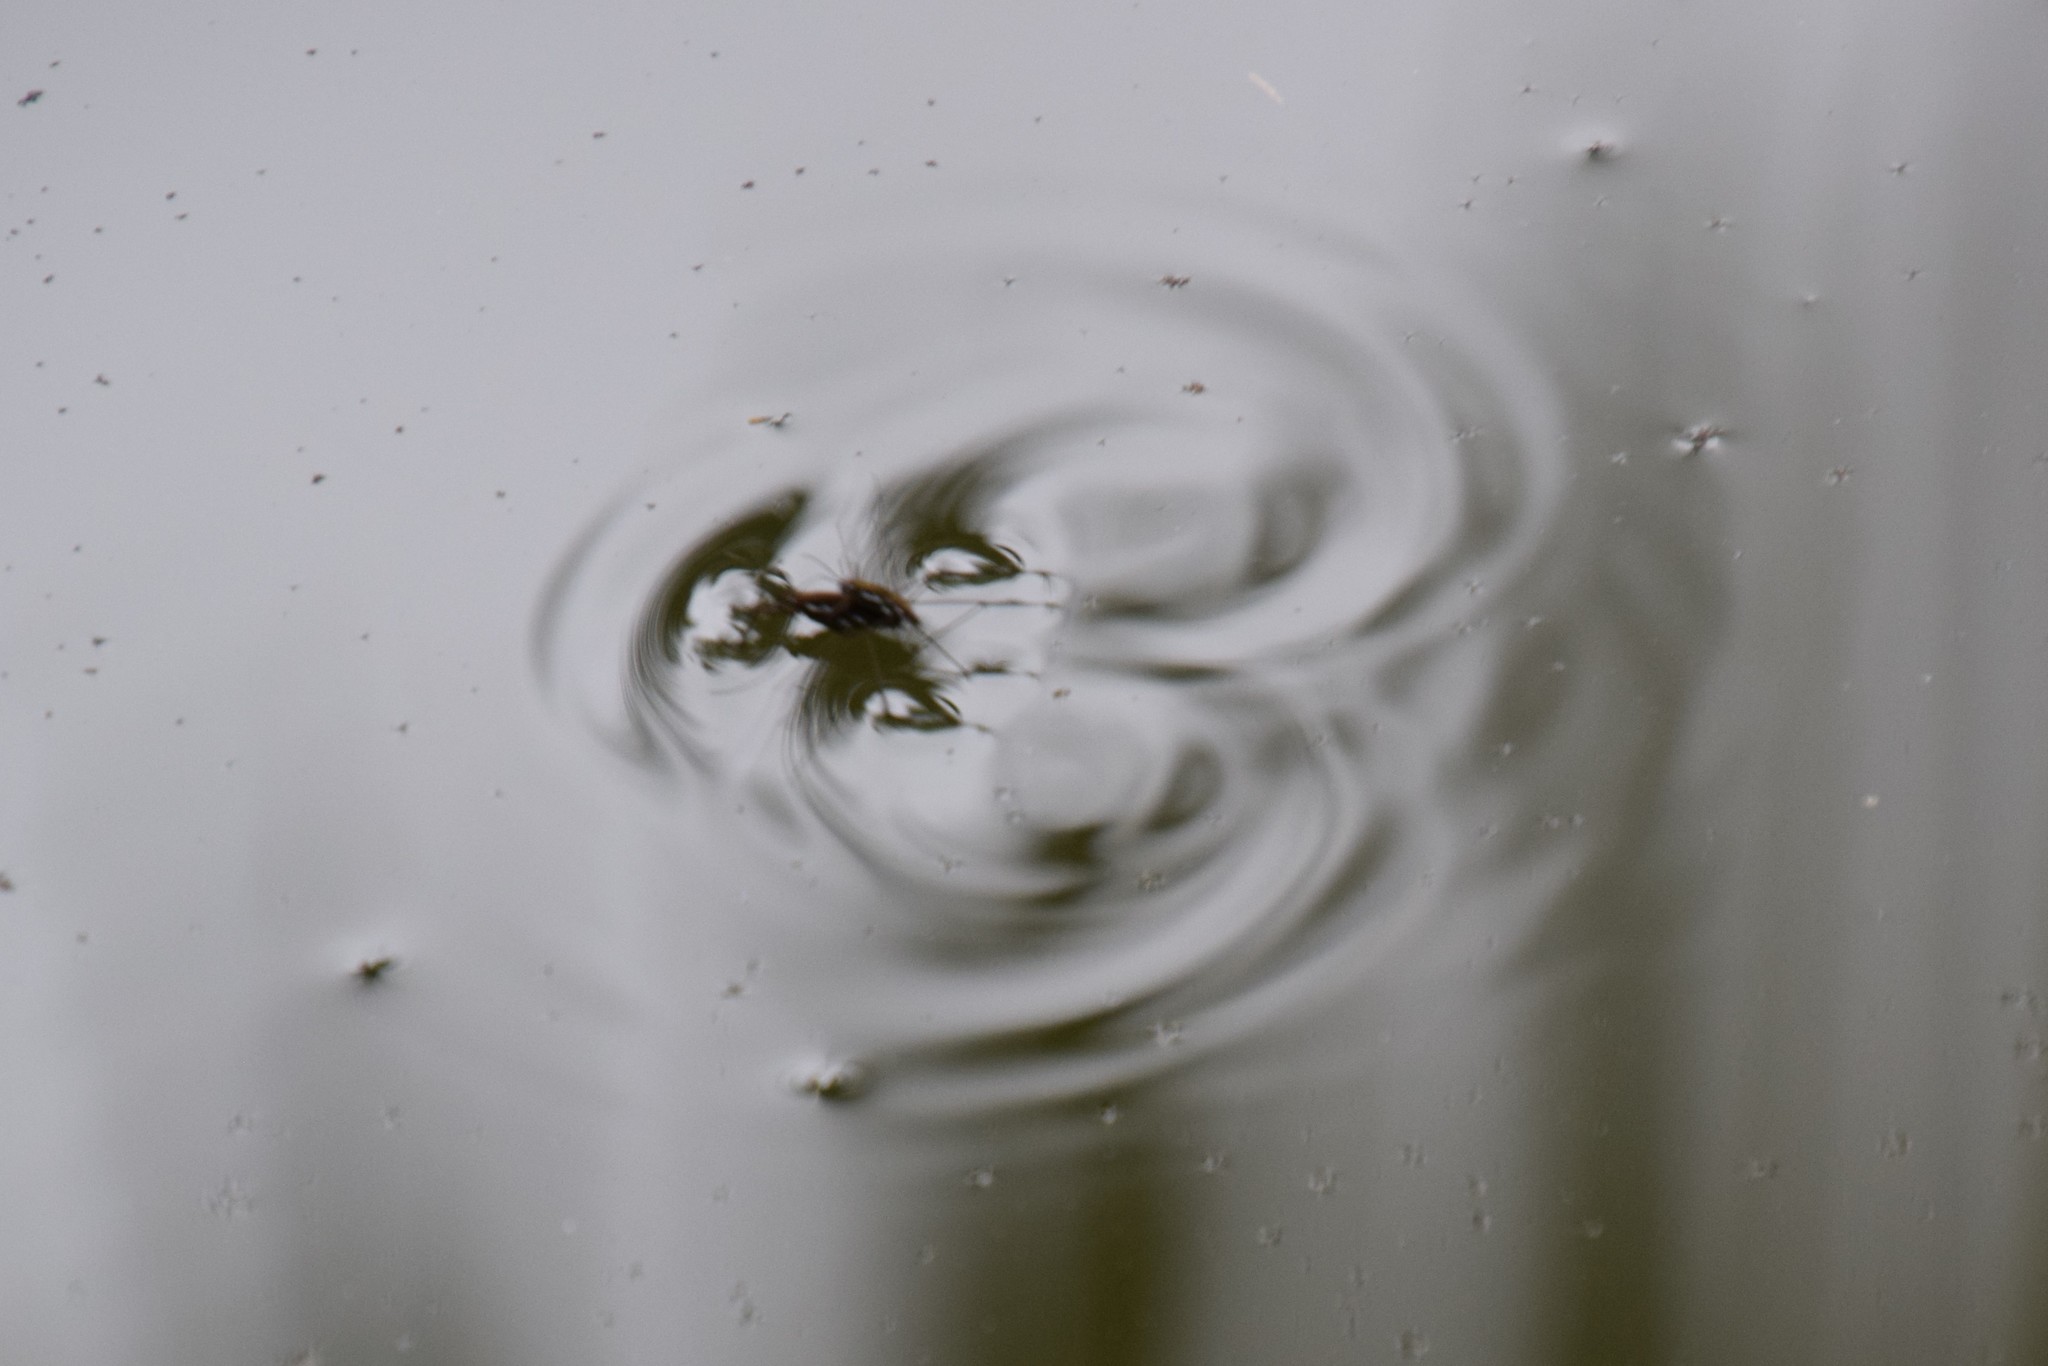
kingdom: Animalia
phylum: Arthropoda
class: Insecta
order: Hemiptera
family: Gerridae
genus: Tenagogerris
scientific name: Tenagogerris
